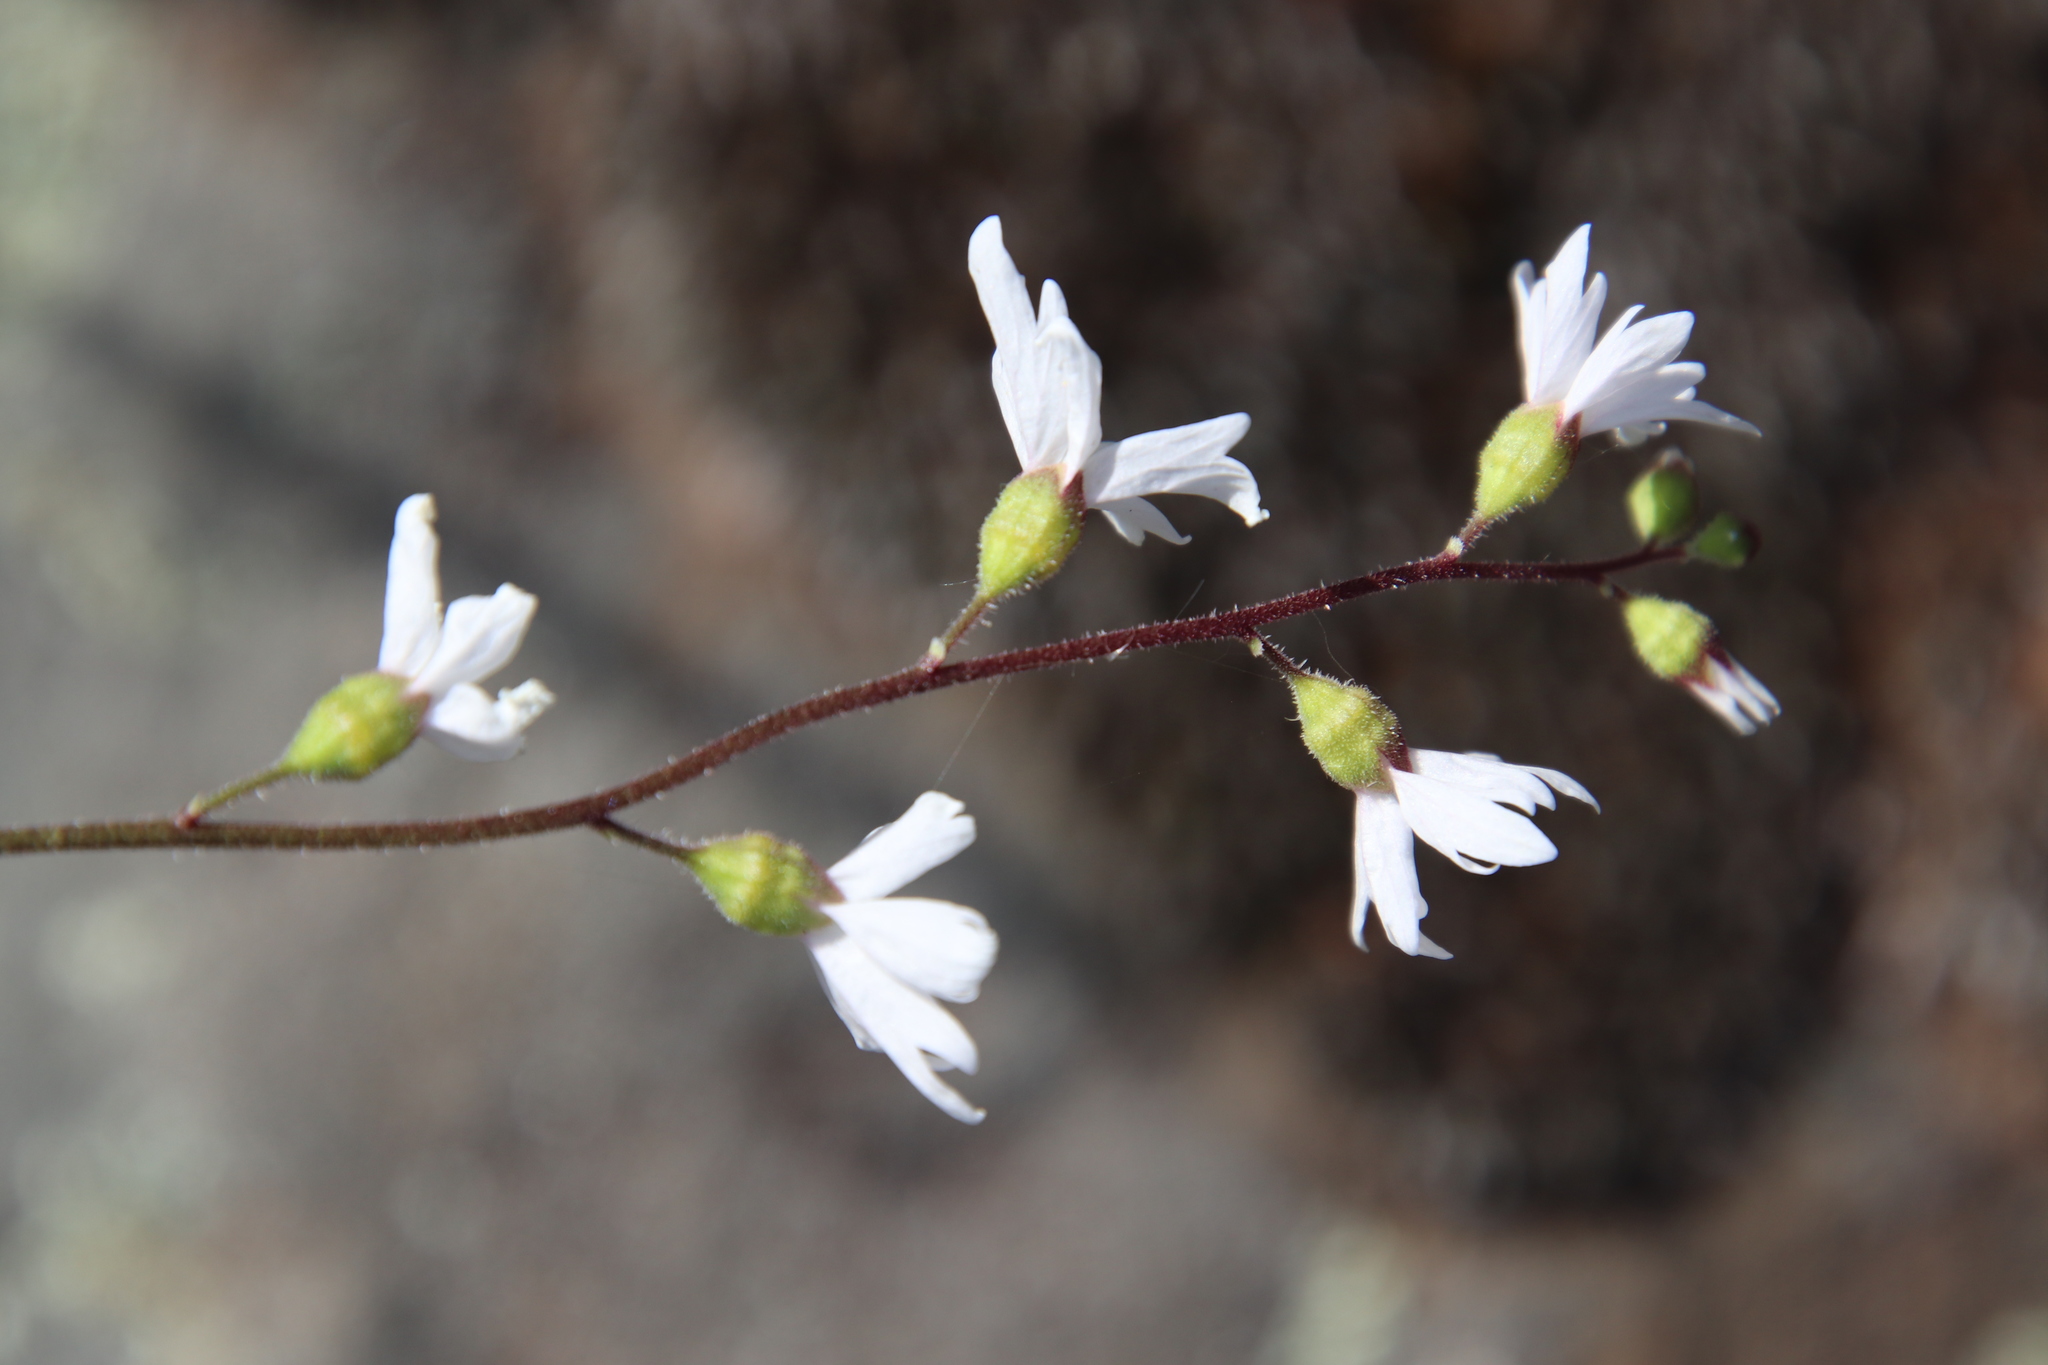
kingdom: Plantae
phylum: Tracheophyta
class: Magnoliopsida
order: Saxifragales
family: Saxifragaceae
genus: Lithophragma
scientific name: Lithophragma affine
